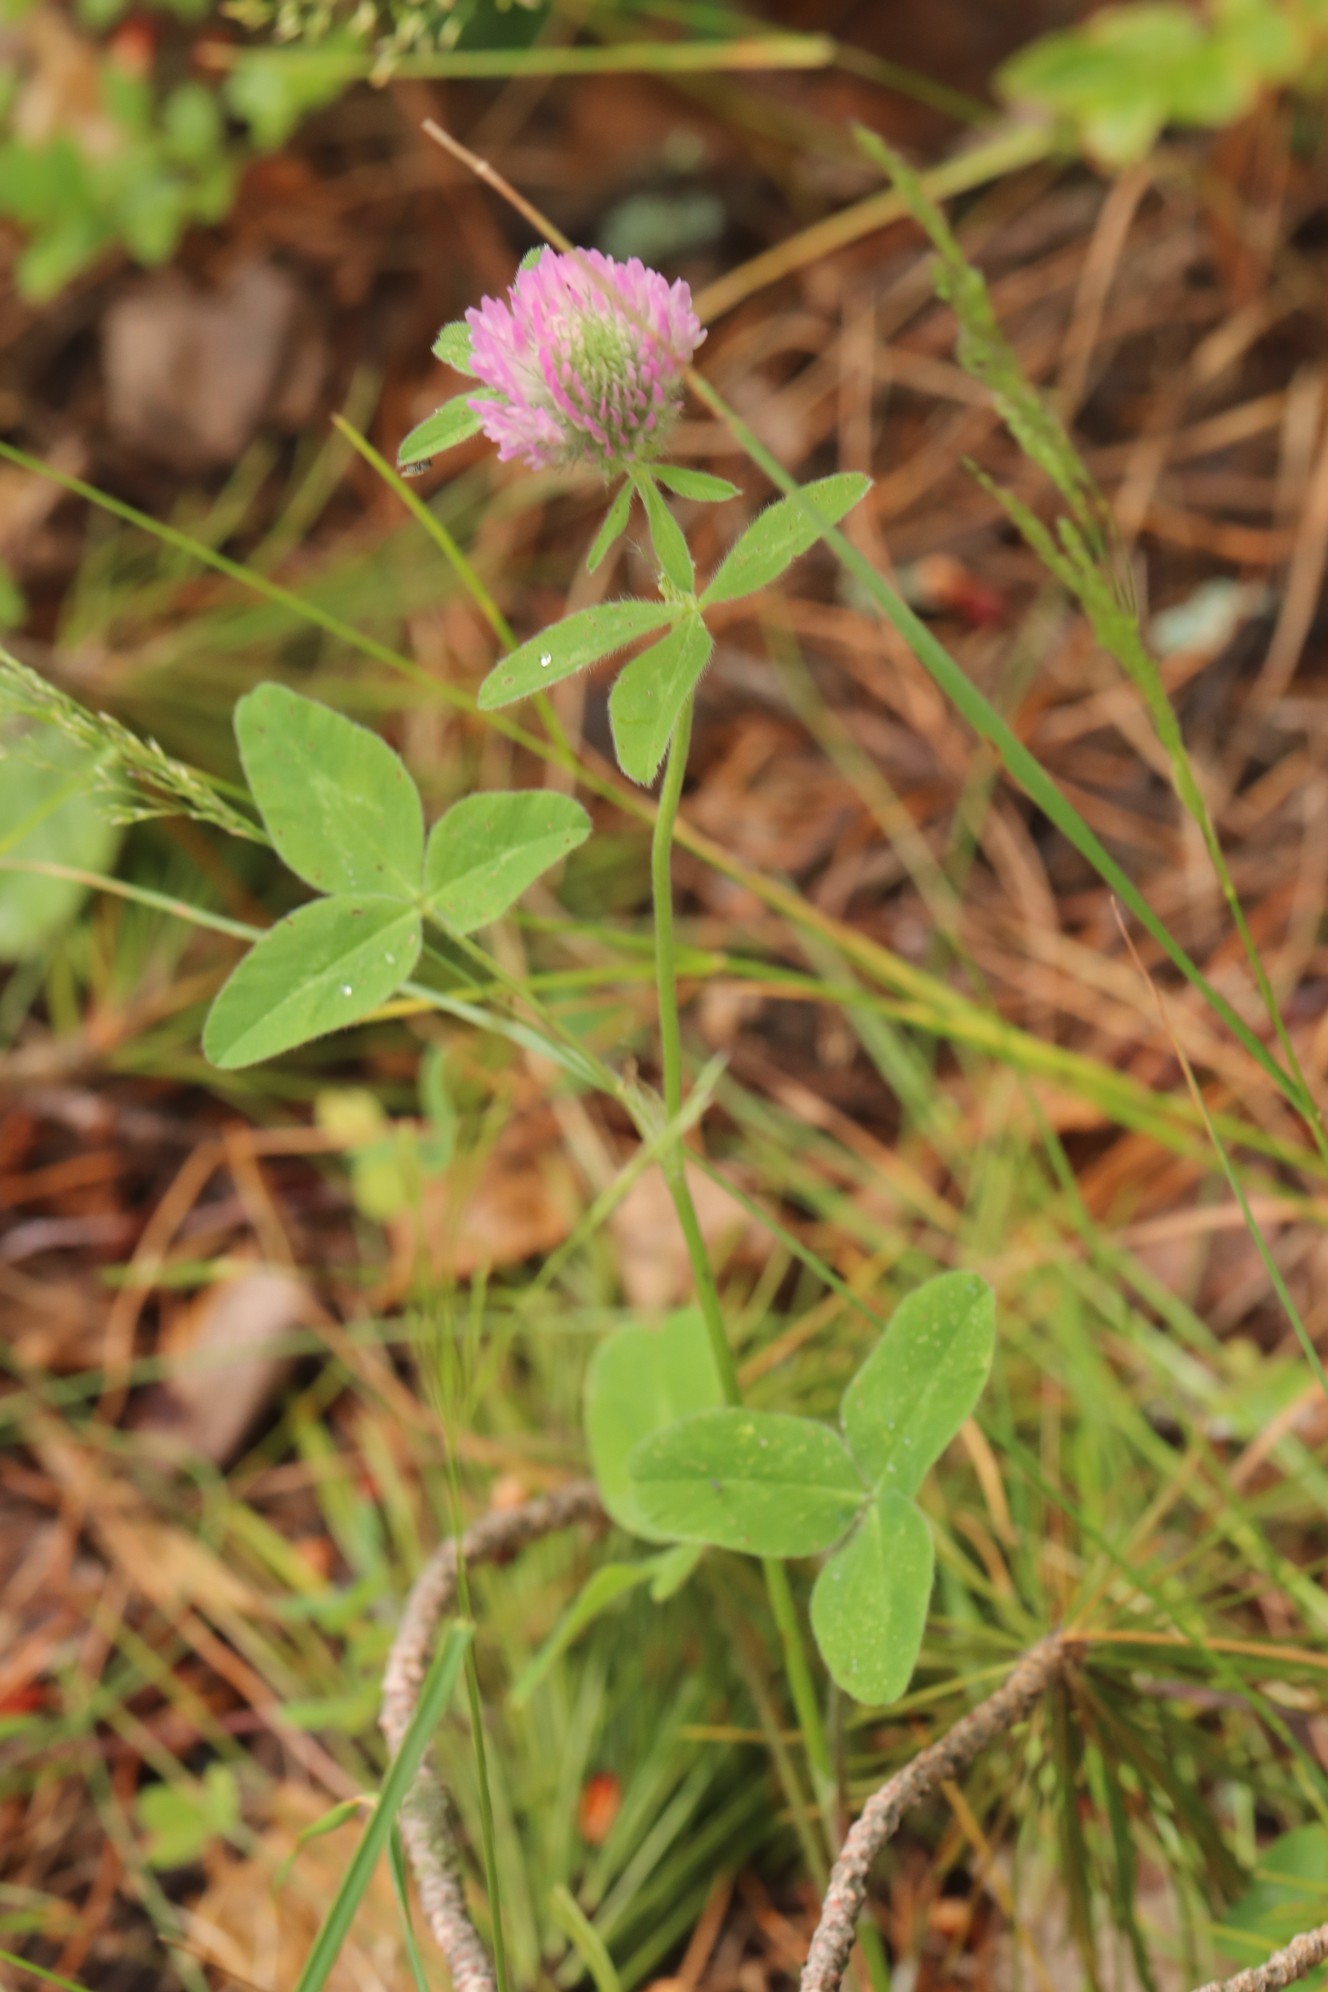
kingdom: Plantae
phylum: Tracheophyta
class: Magnoliopsida
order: Fabales
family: Fabaceae
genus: Trifolium
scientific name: Trifolium pratense
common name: Red clover
